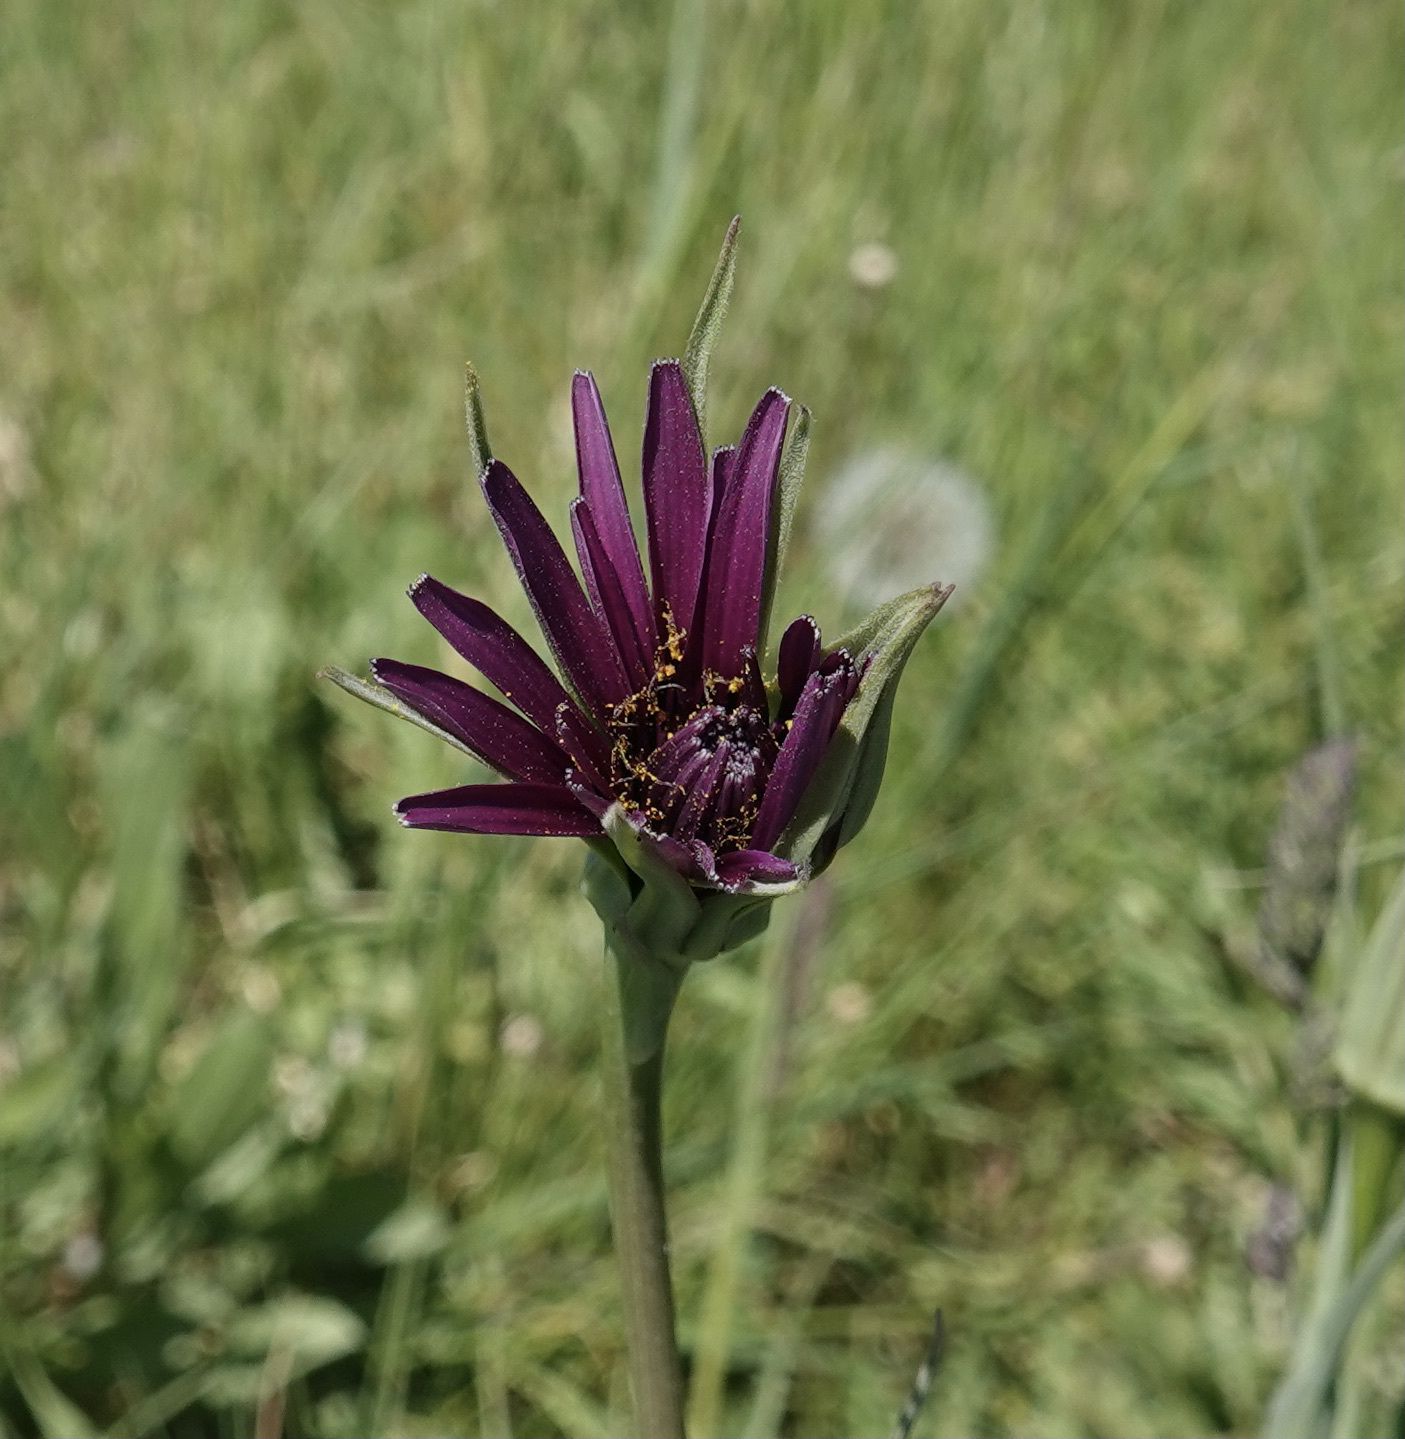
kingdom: Plantae
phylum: Tracheophyta
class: Magnoliopsida
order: Asterales
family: Asteraceae
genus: Tragopogon
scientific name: Tragopogon porrifolius
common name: Salsify
